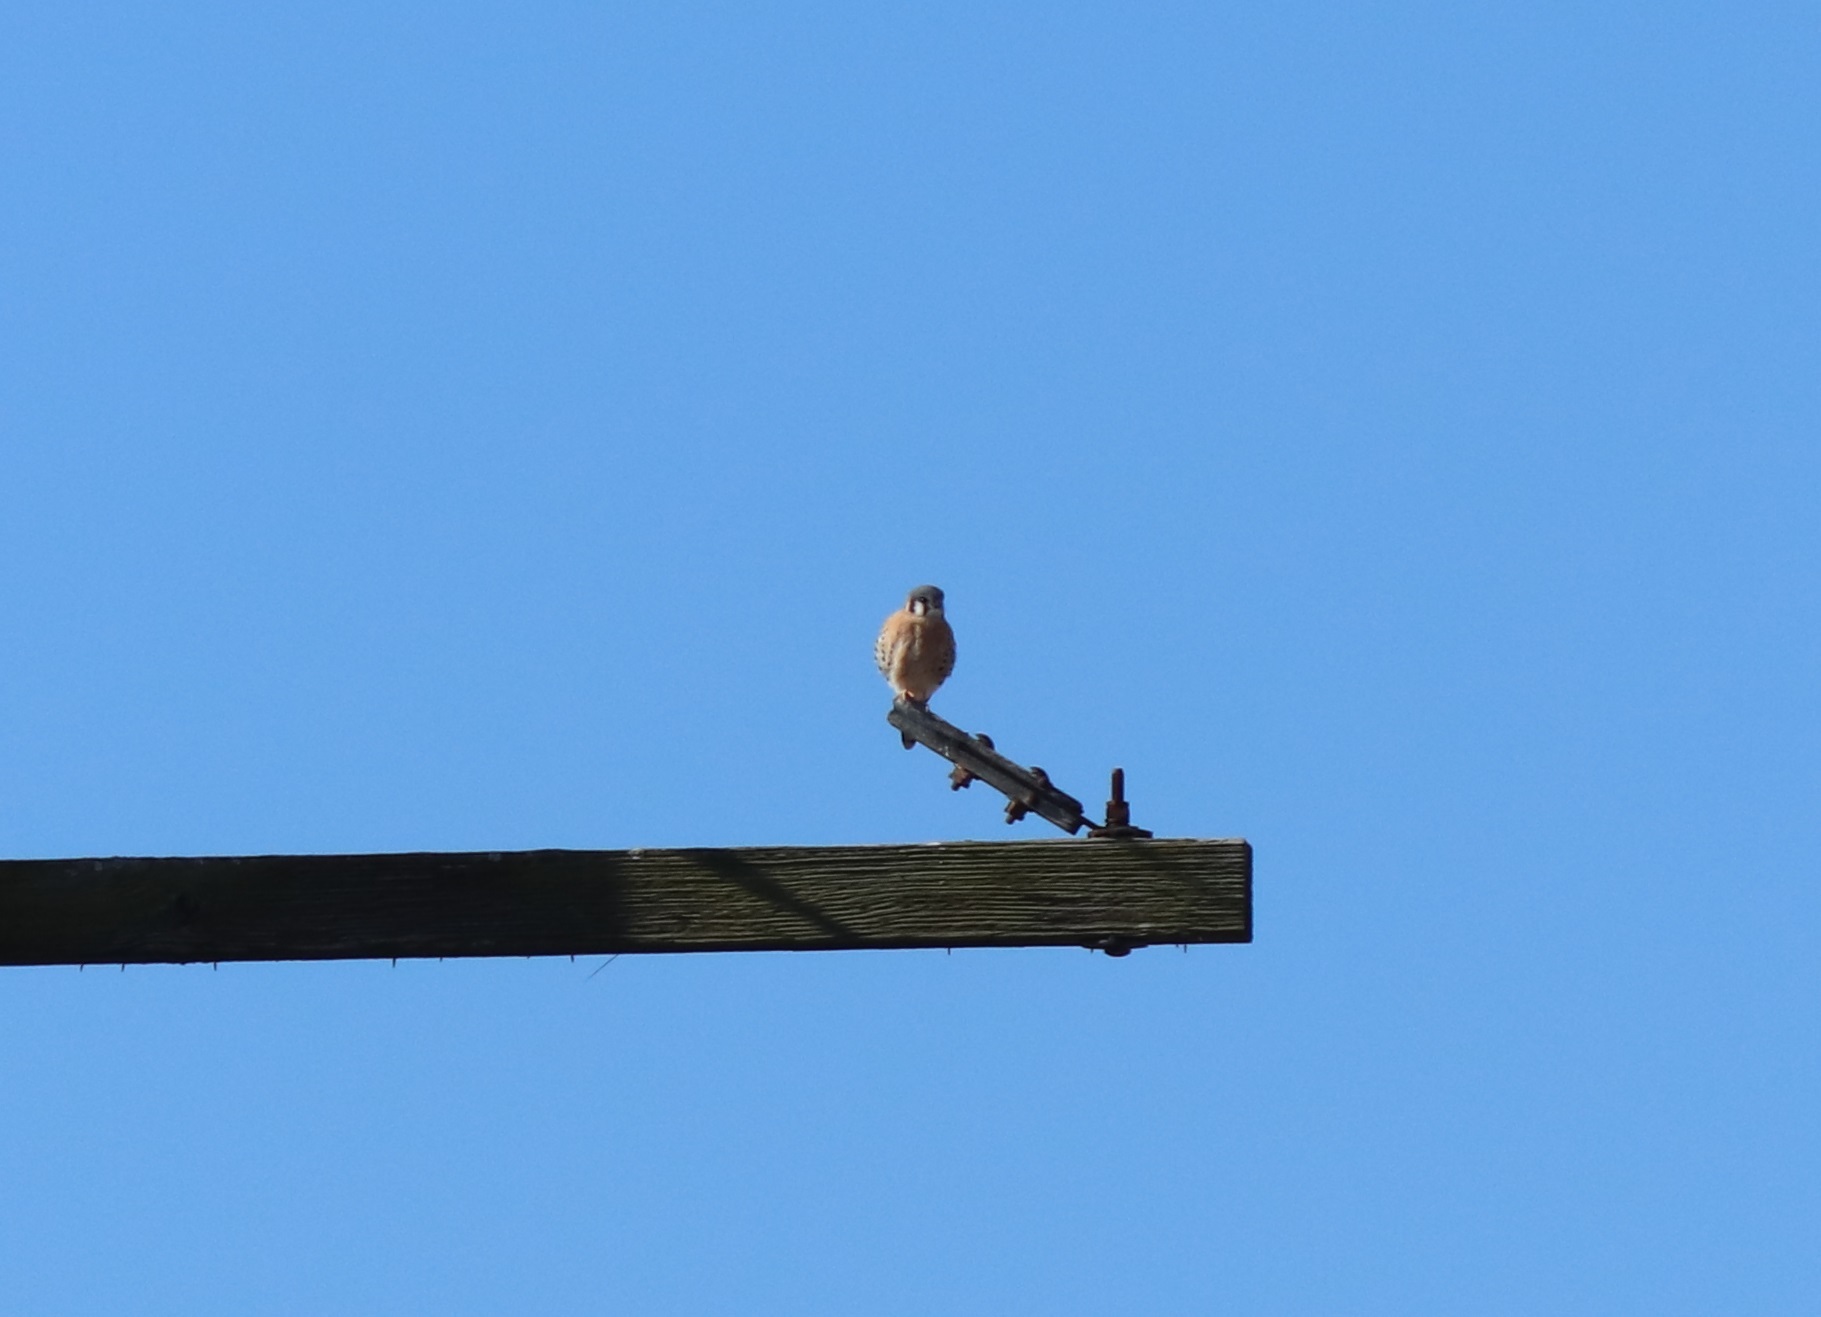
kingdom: Animalia
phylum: Chordata
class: Aves
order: Falconiformes
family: Falconidae
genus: Falco
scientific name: Falco sparverius
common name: American kestrel
